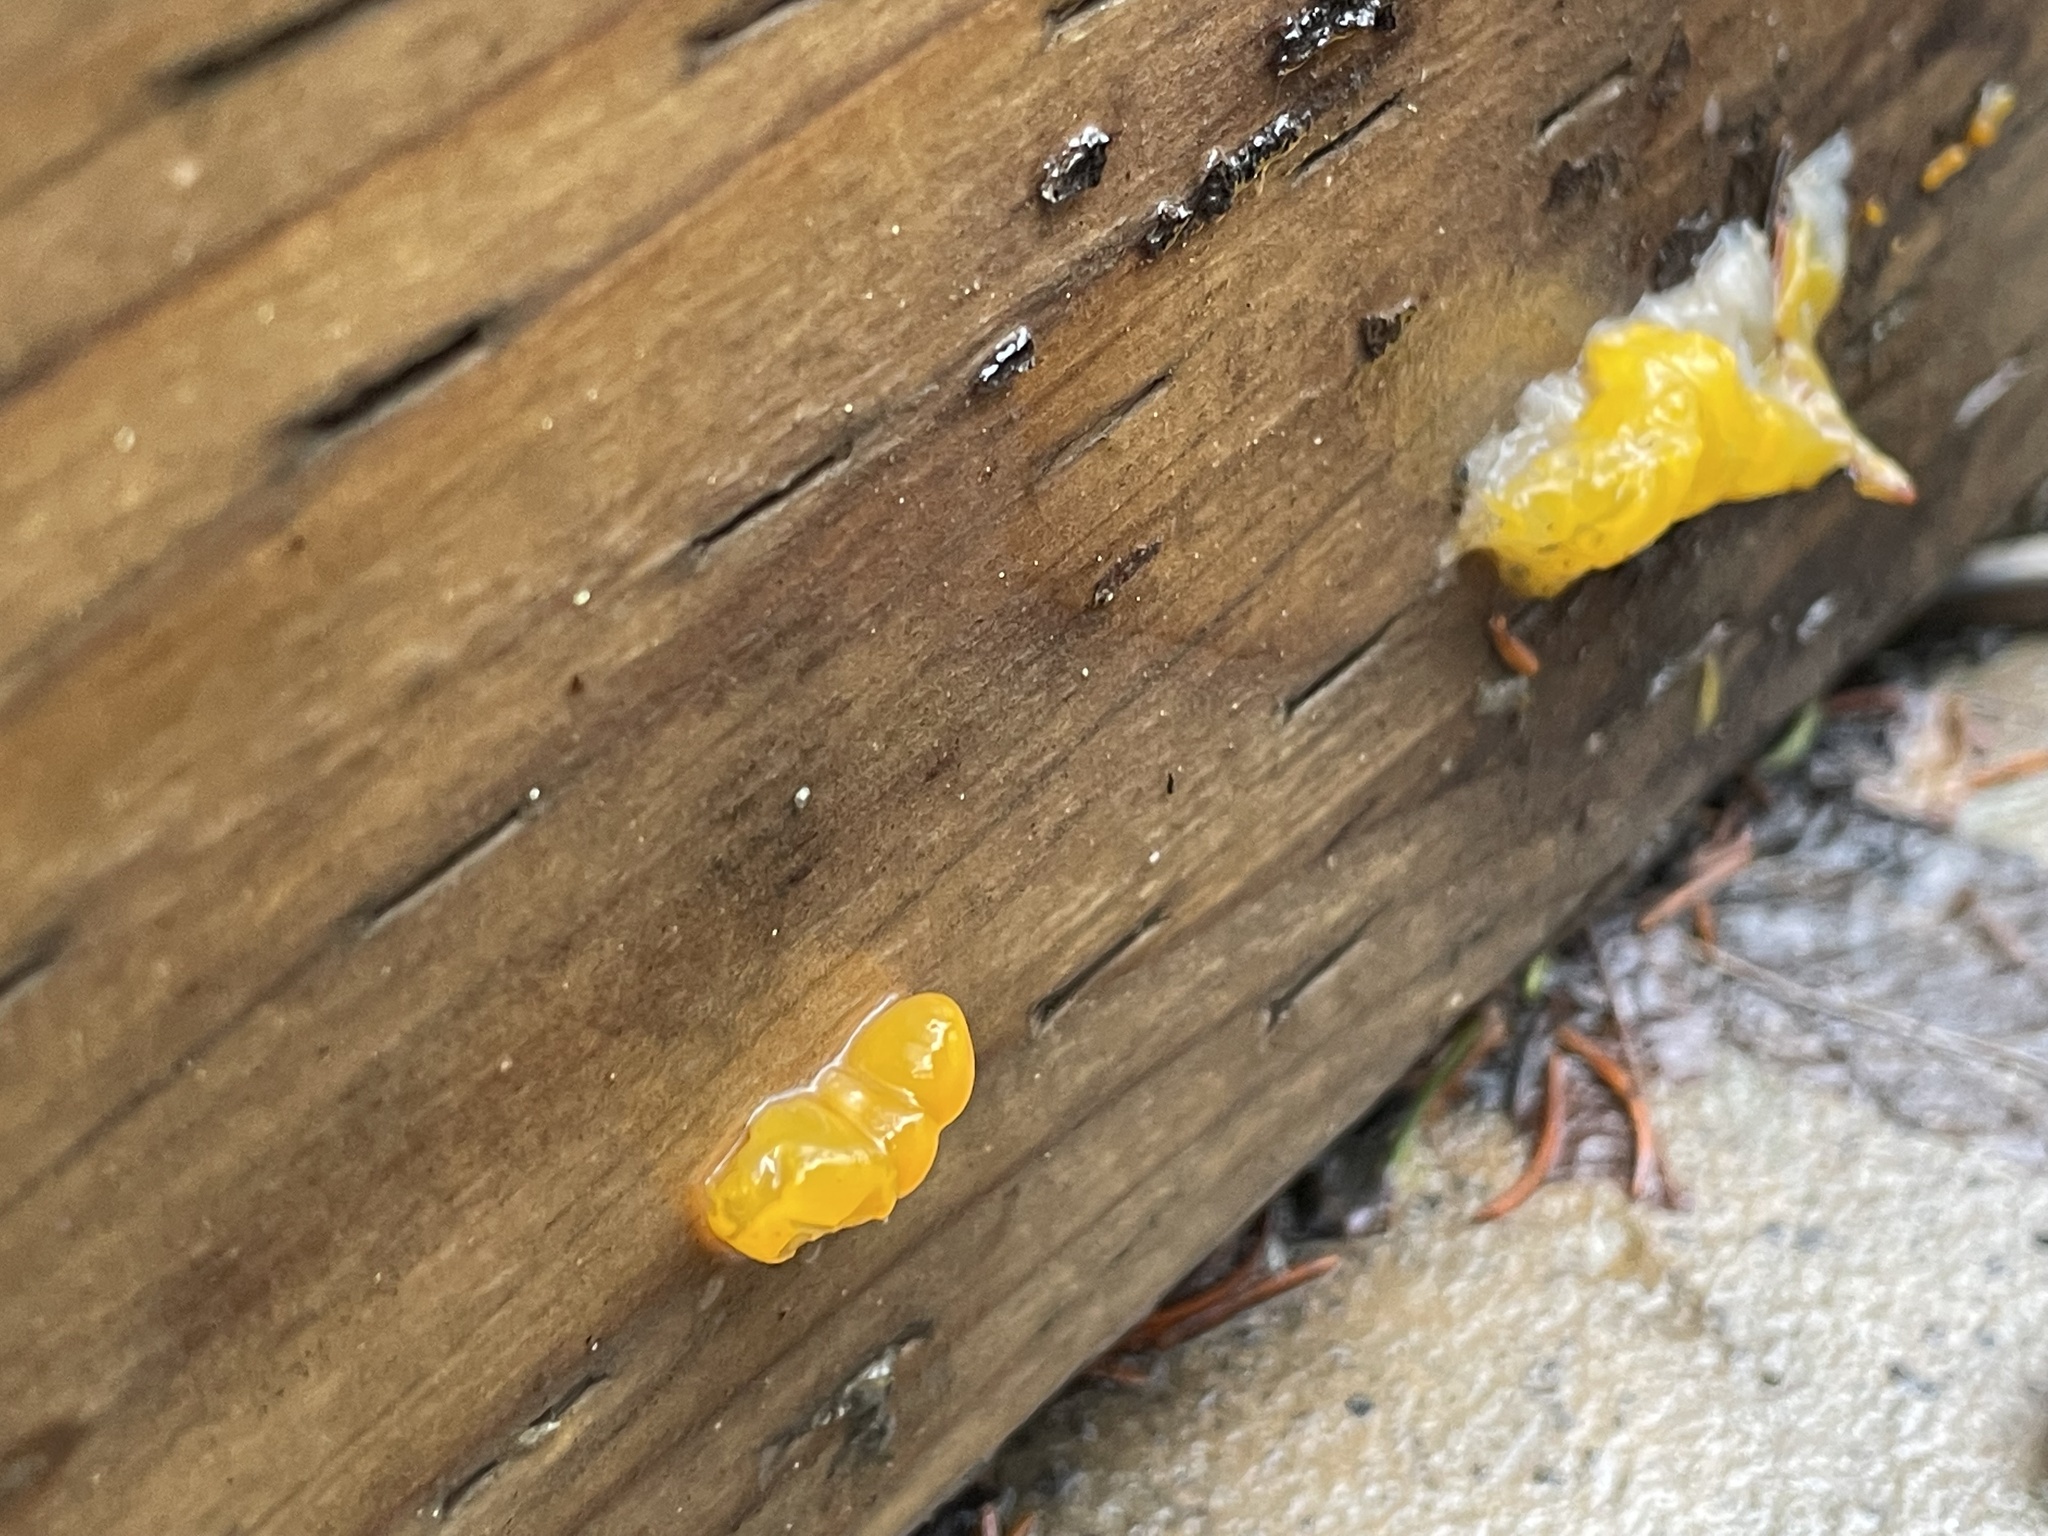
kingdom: Fungi
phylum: Basidiomycota
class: Dacrymycetes
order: Dacrymycetales
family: Dacrymycetaceae
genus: Dacrymyces
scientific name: Dacrymyces chrysospermus
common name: Orange jelly spot
